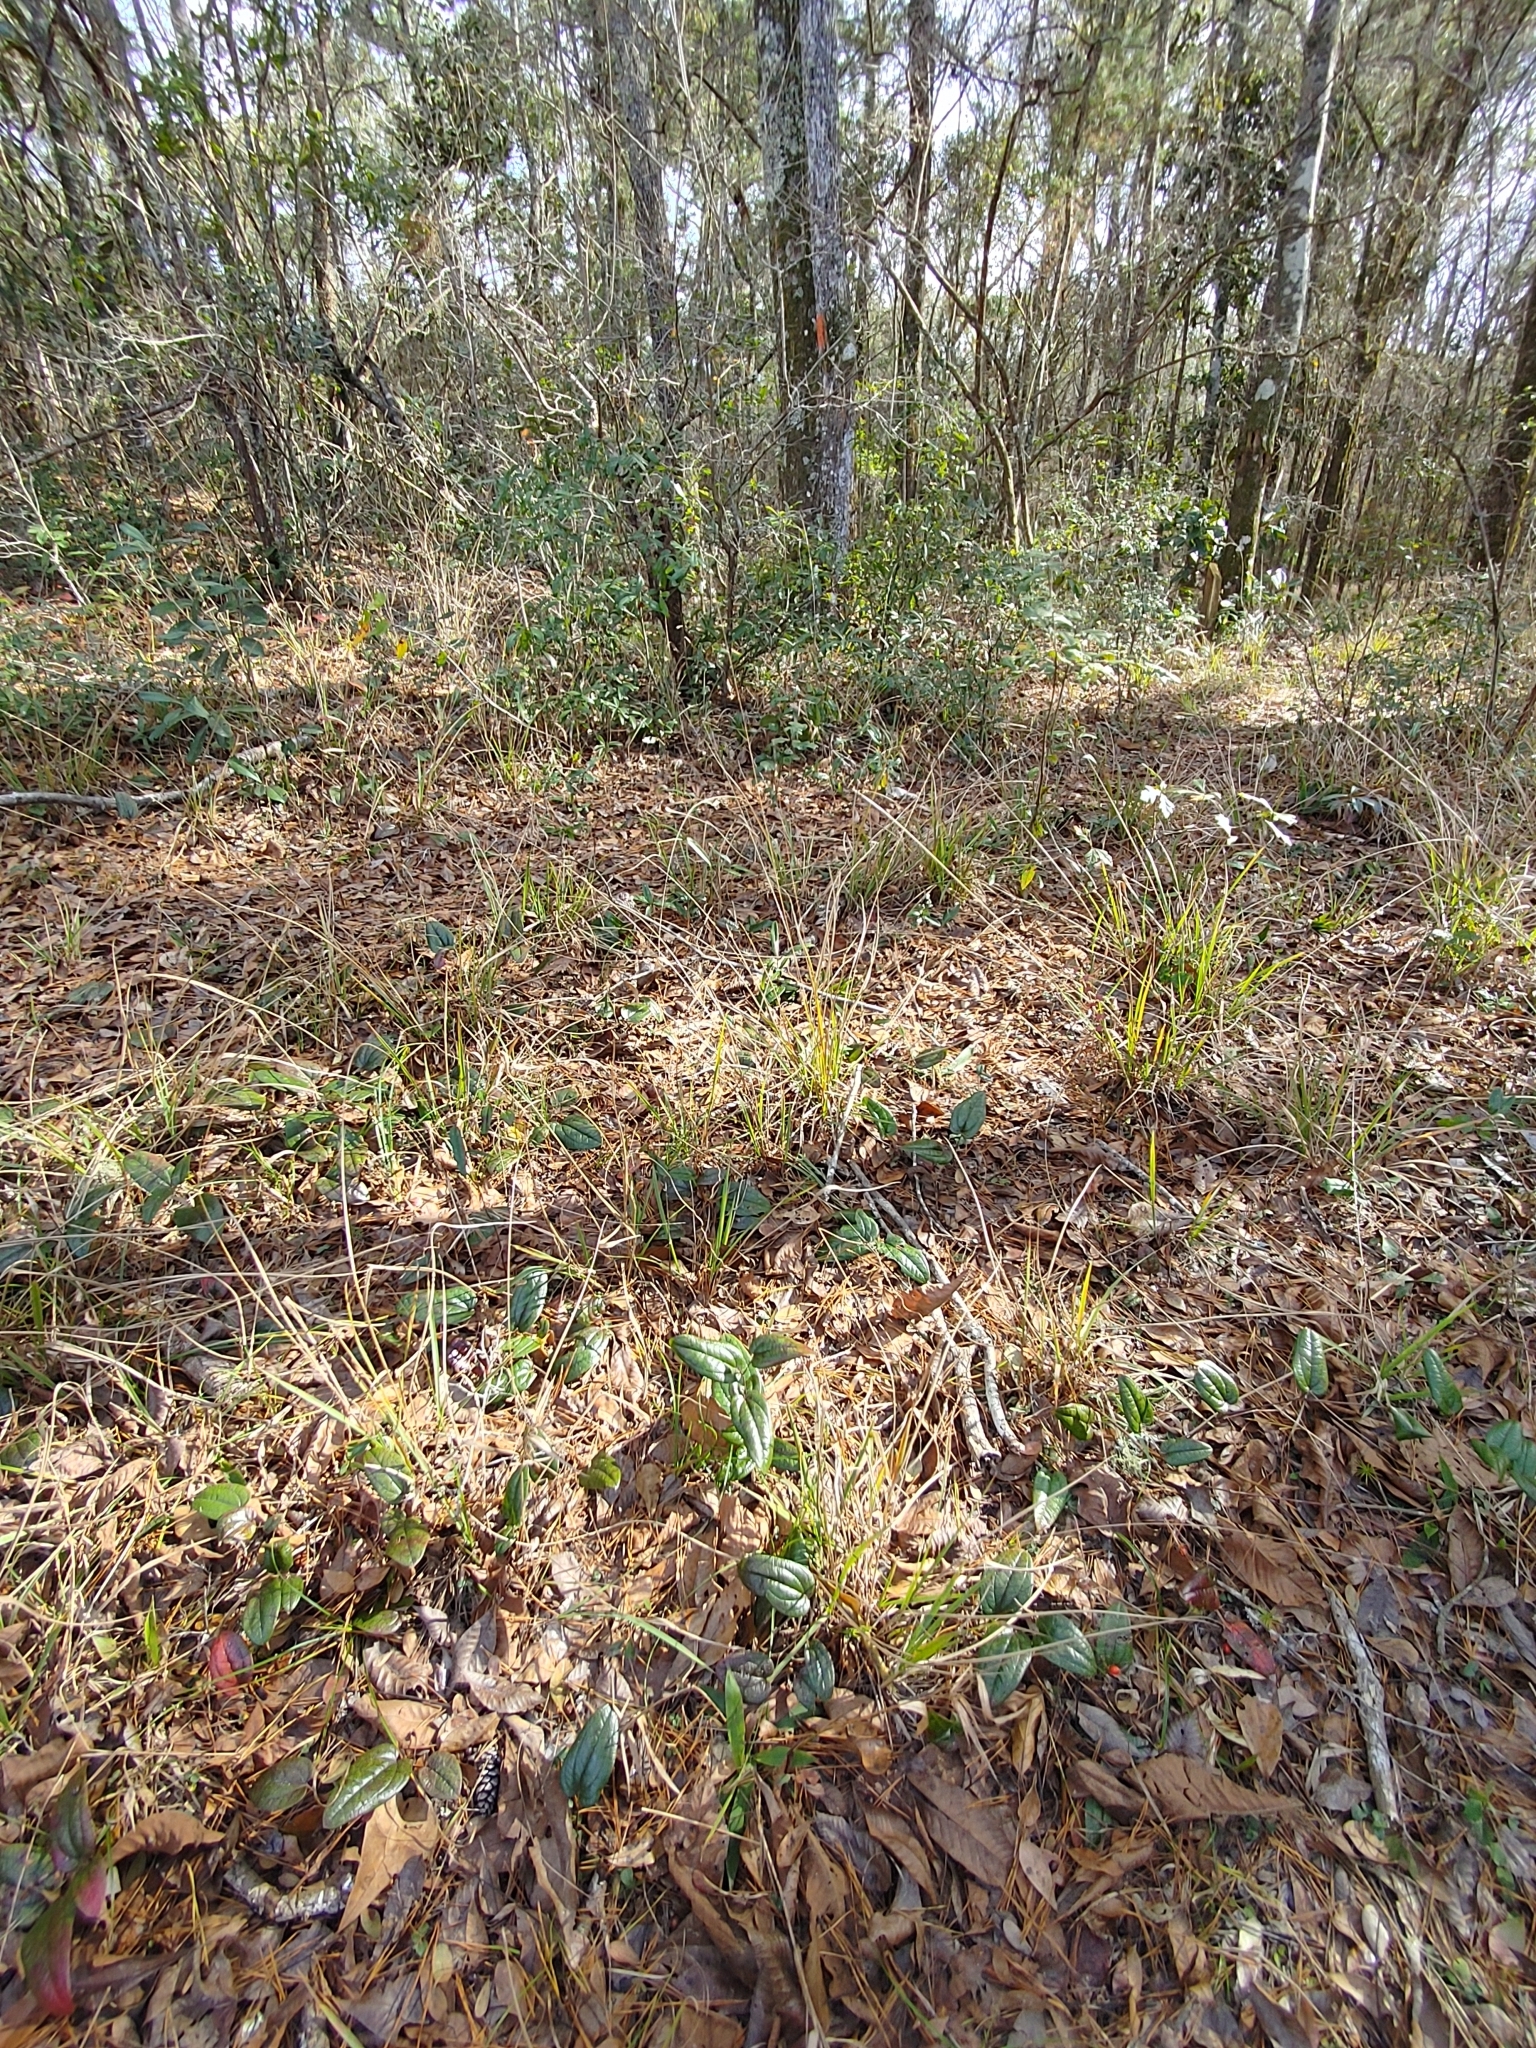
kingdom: Plantae
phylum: Tracheophyta
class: Liliopsida
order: Liliales
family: Smilacaceae
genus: Smilax
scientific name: Smilax pumila
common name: Sarsaparilla-vine
